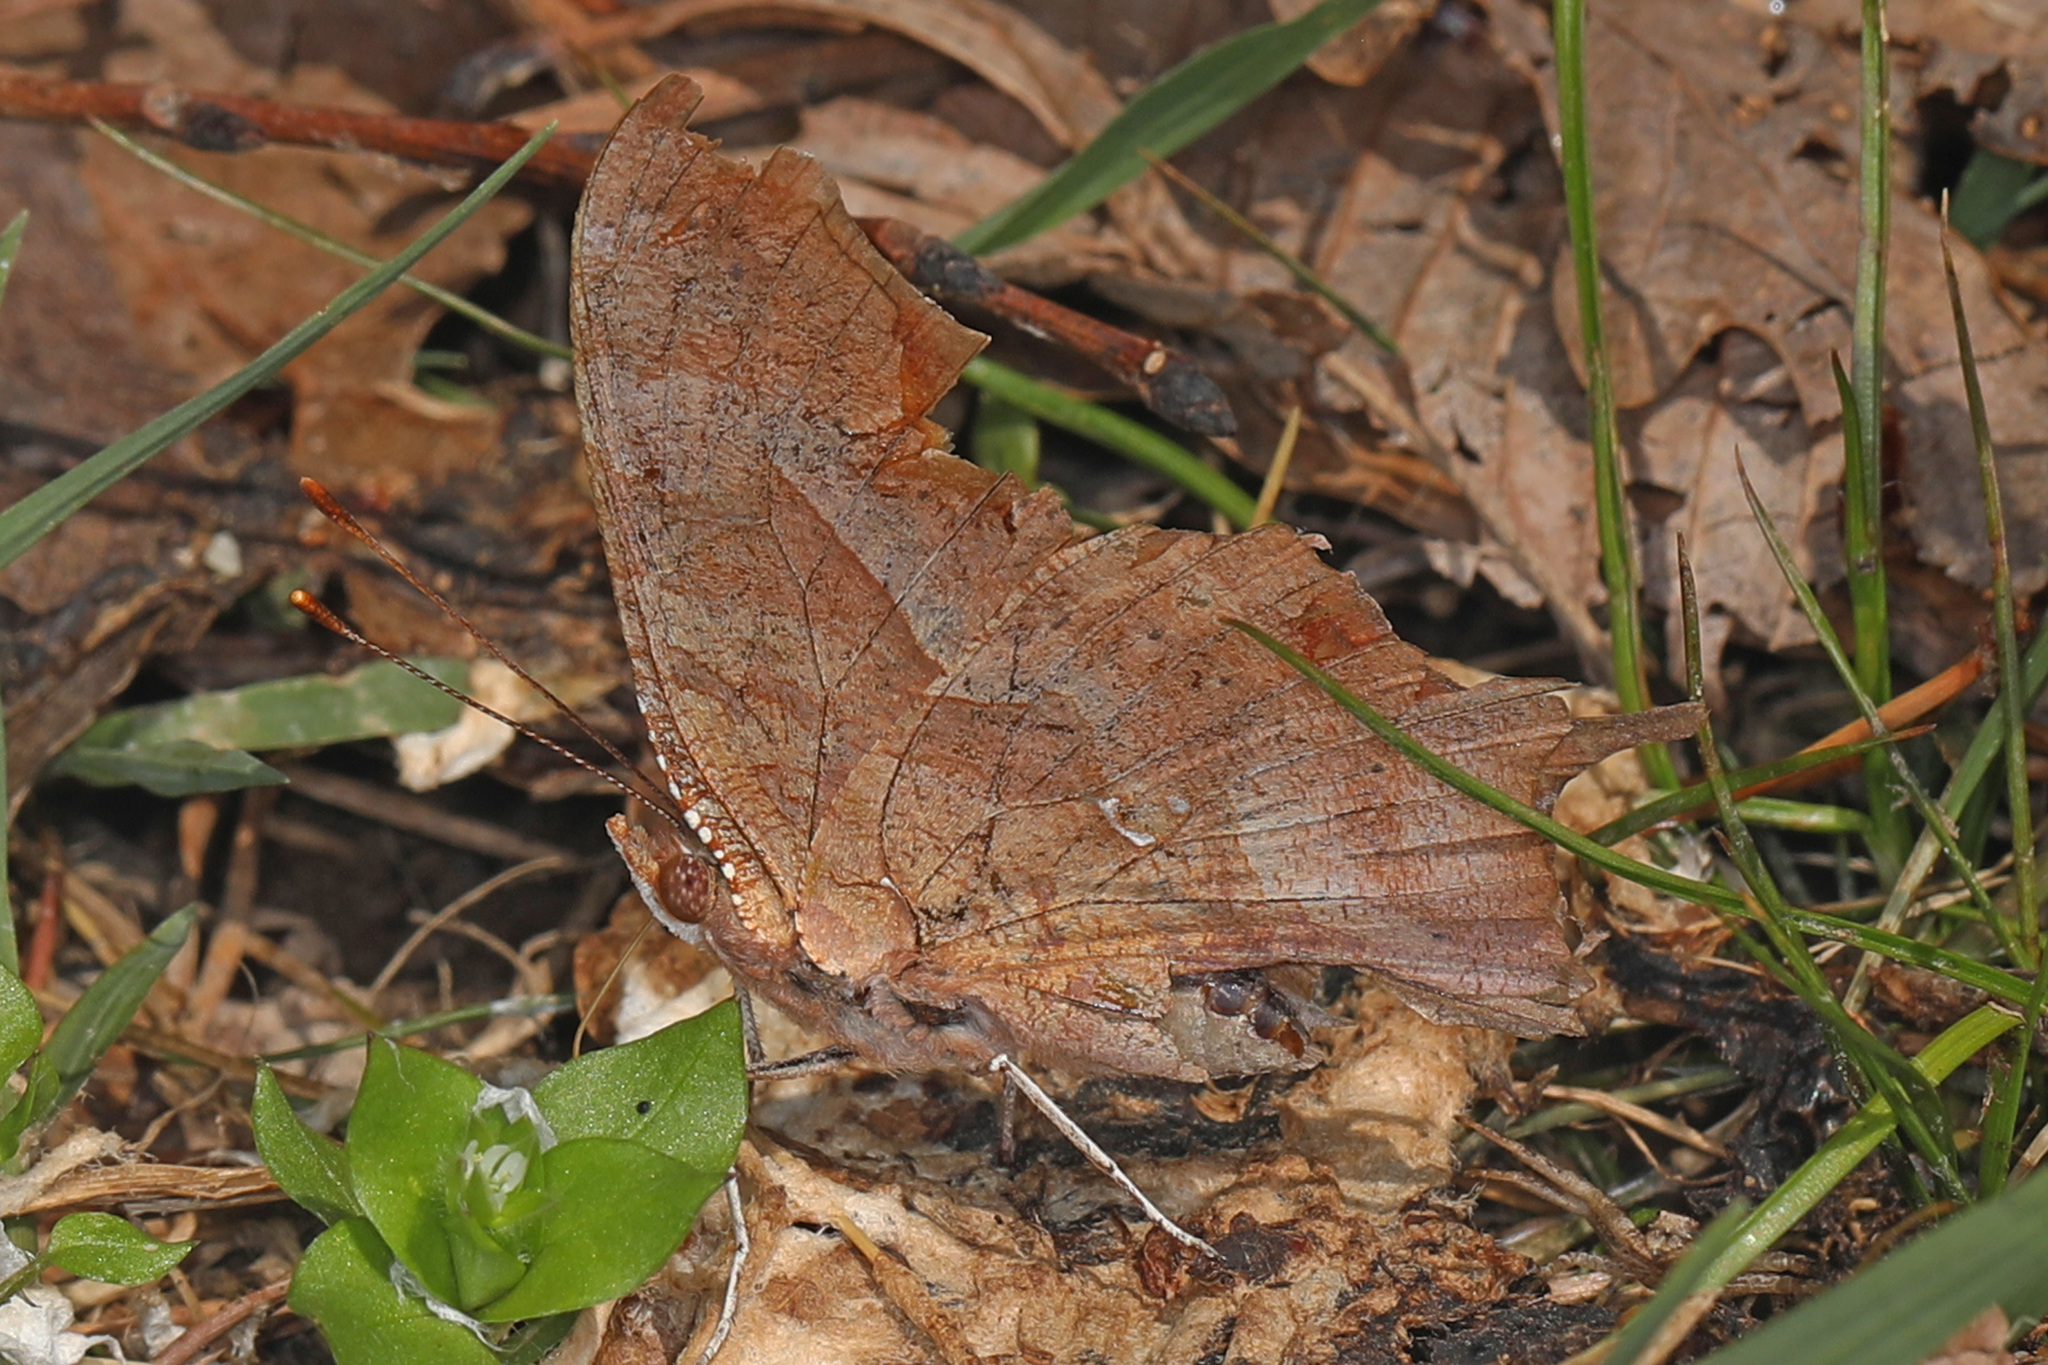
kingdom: Animalia
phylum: Arthropoda
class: Insecta
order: Lepidoptera
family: Nymphalidae
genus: Polygonia
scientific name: Polygonia interrogationis
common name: Question mark
